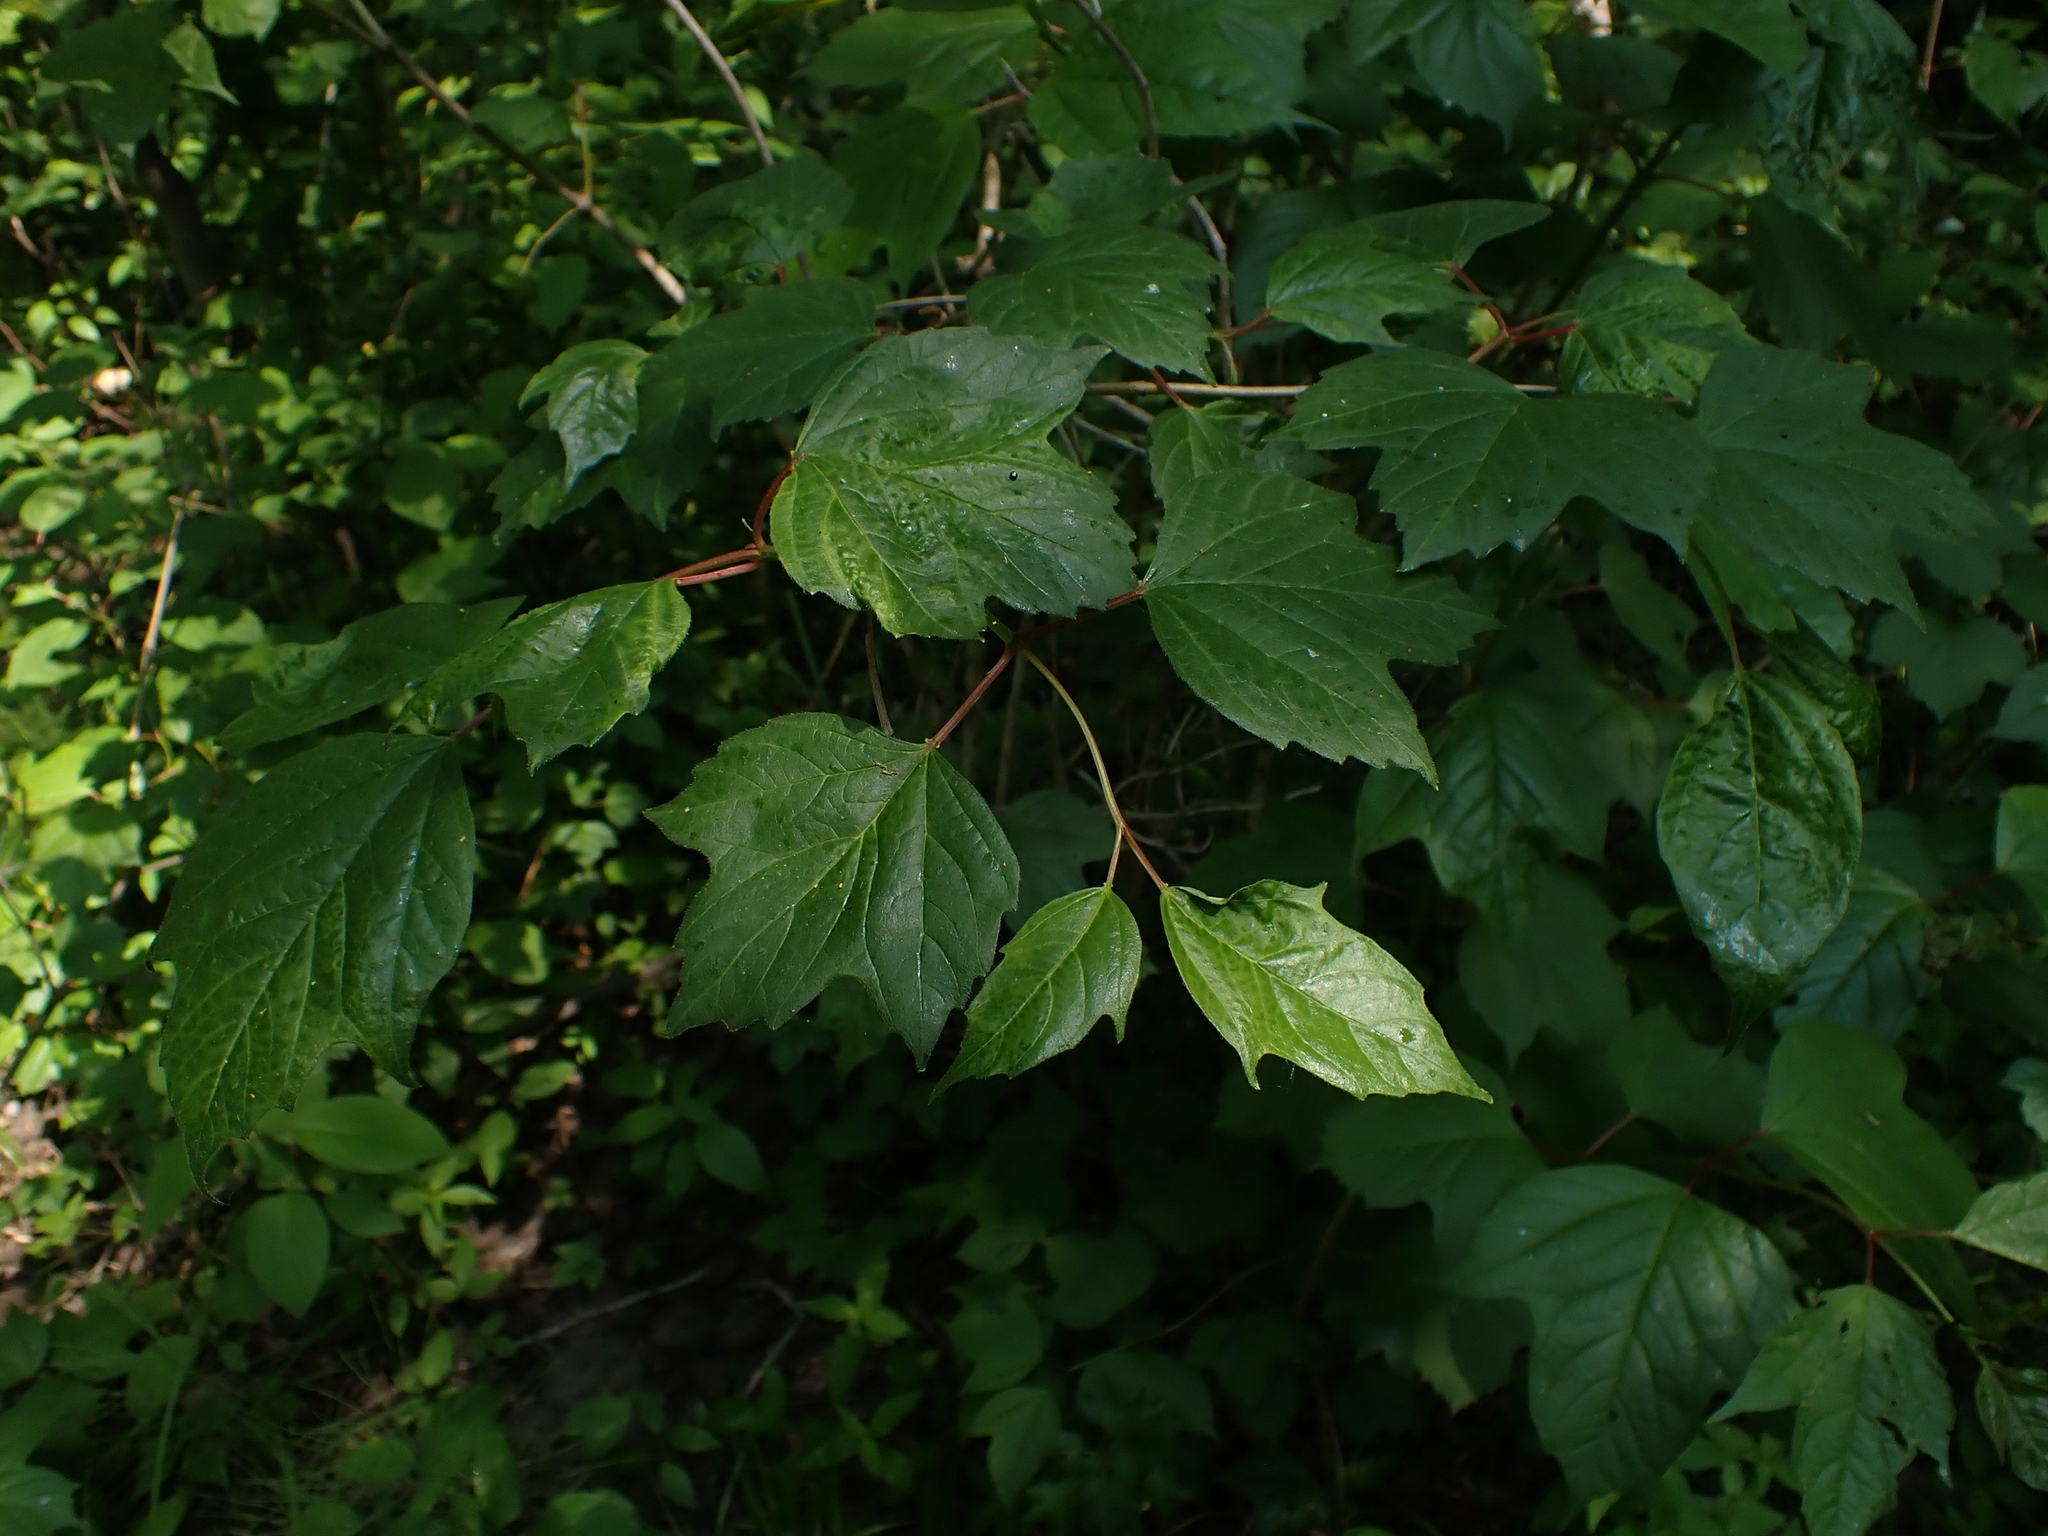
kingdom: Plantae
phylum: Tracheophyta
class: Magnoliopsida
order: Dipsacales
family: Viburnaceae
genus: Viburnum
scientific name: Viburnum trilobum
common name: American cranberrybush
